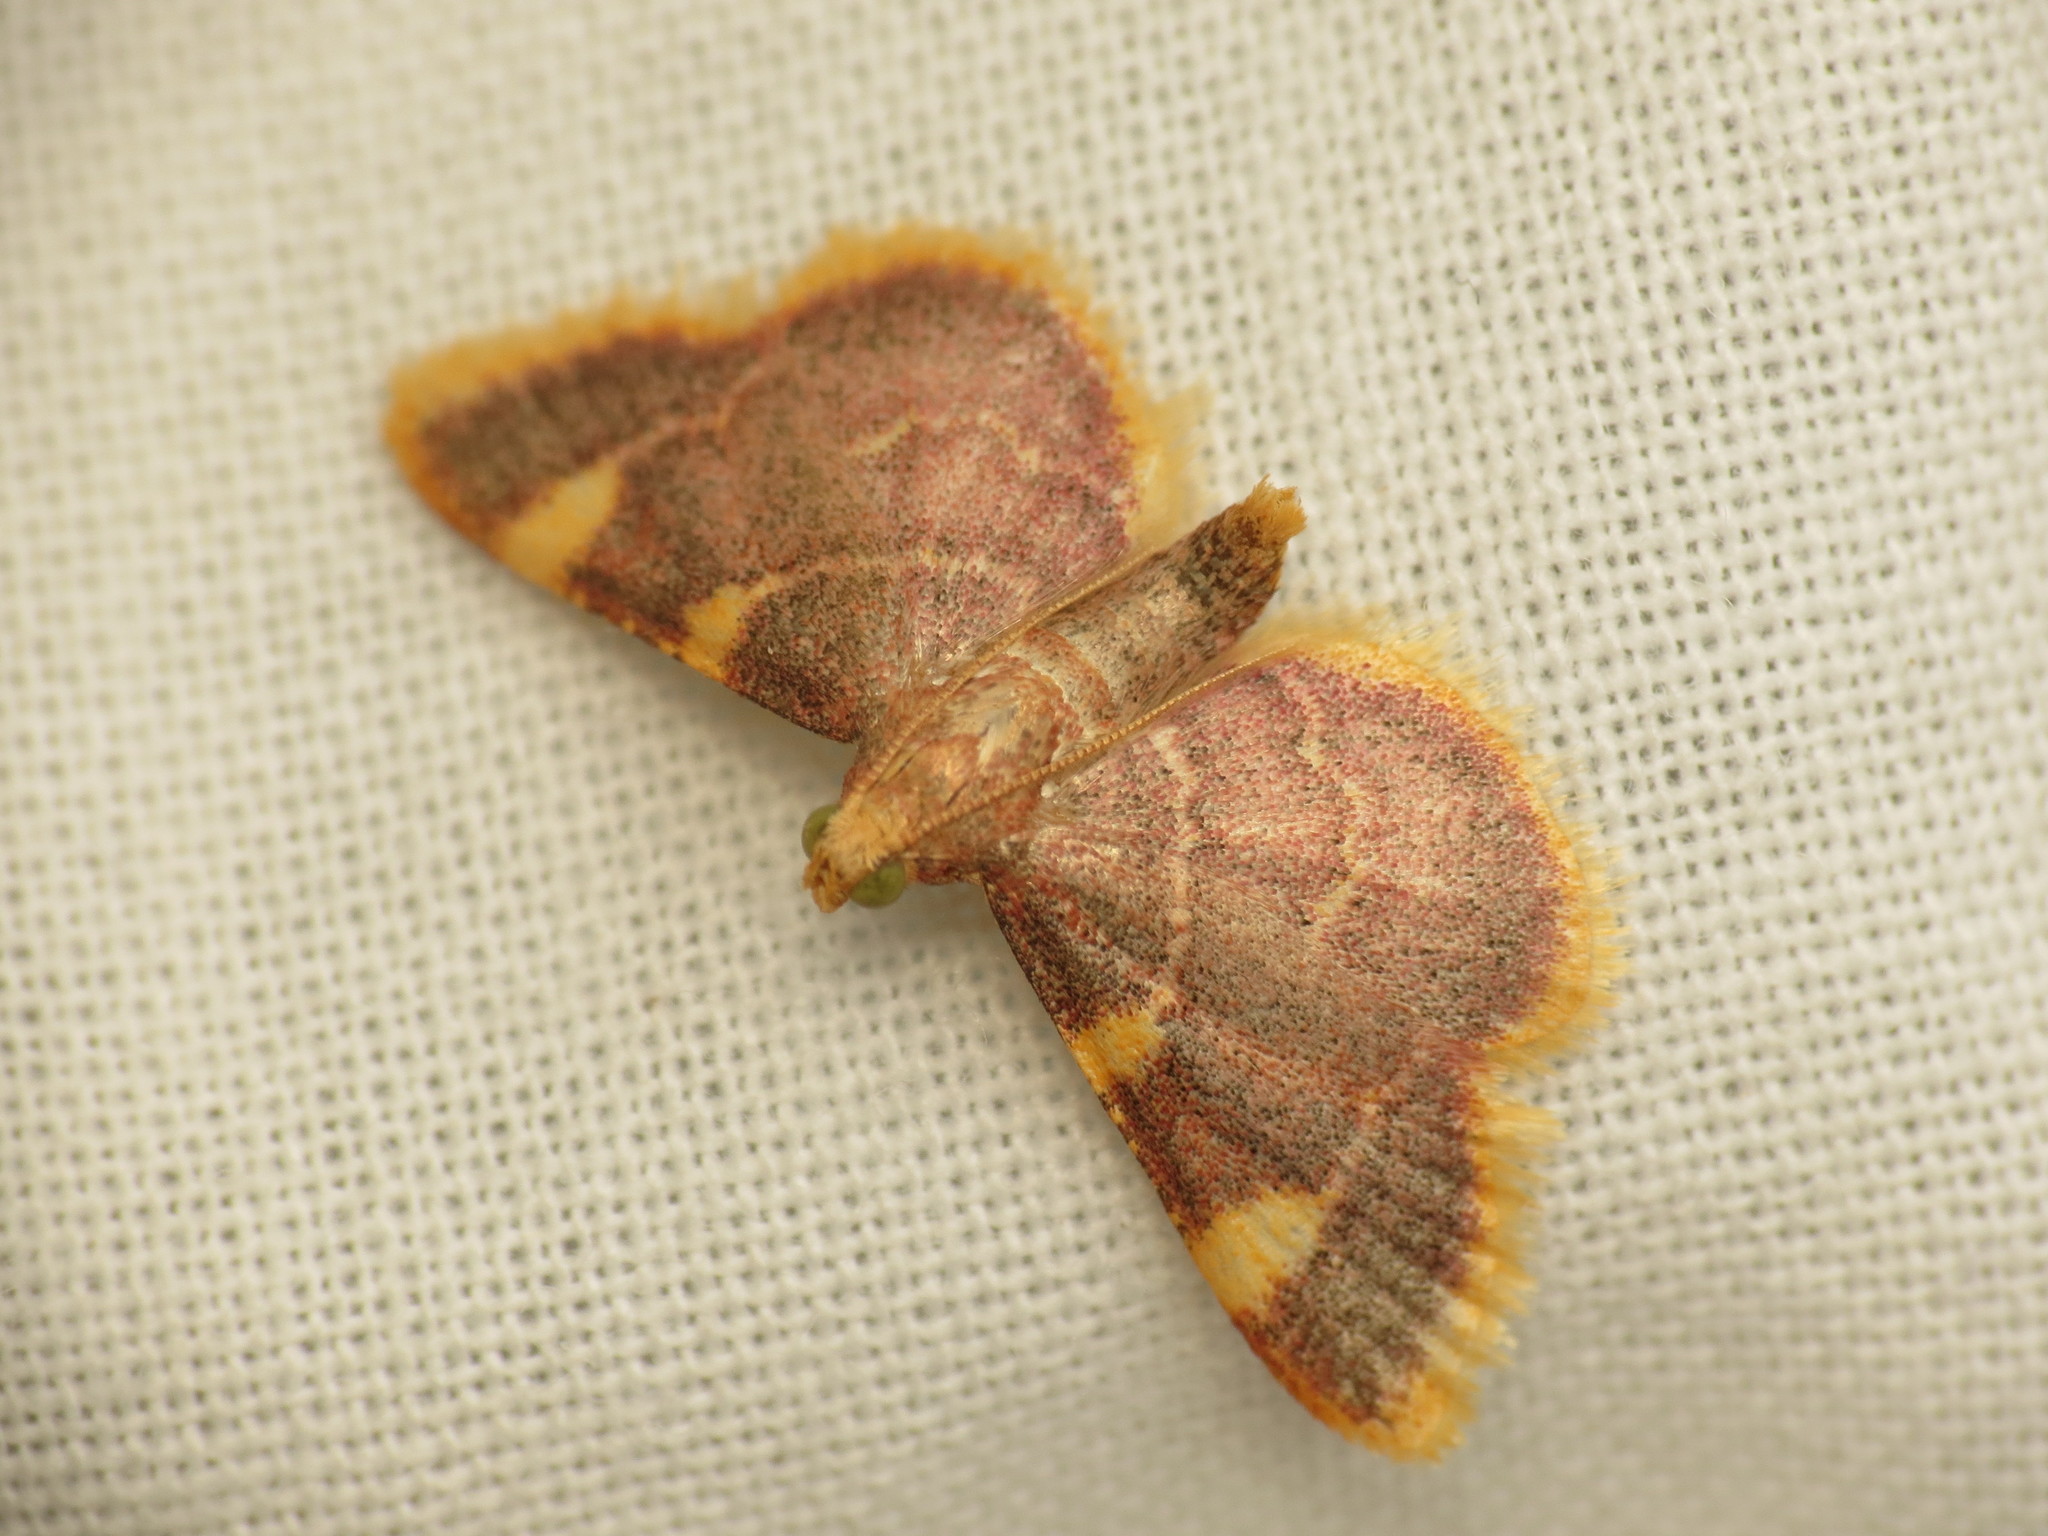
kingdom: Animalia
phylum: Arthropoda
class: Insecta
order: Lepidoptera
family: Pyralidae
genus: Hypsopygia
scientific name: Hypsopygia costalis
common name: Gold triangle
